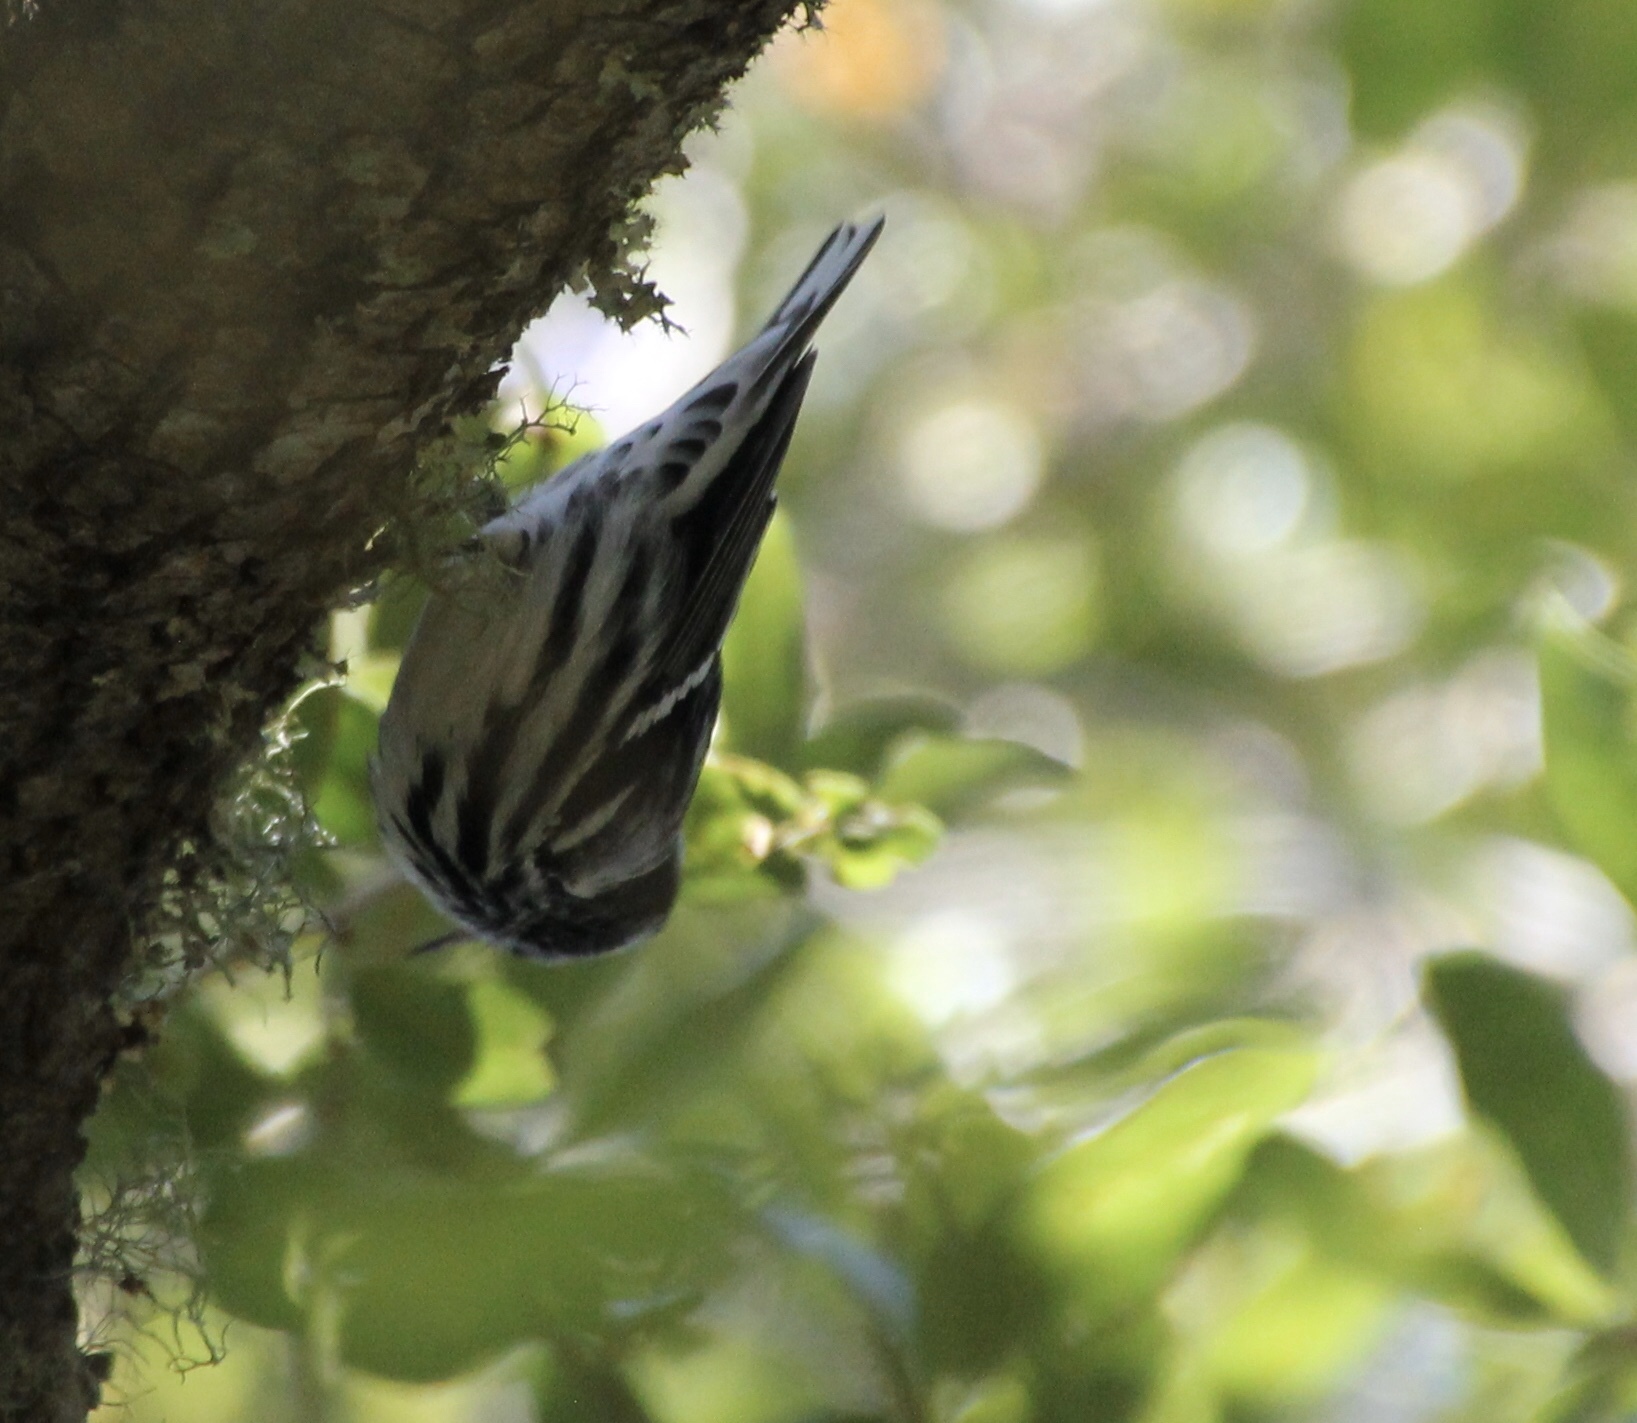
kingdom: Animalia
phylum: Chordata
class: Aves
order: Passeriformes
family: Parulidae
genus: Mniotilta
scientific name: Mniotilta varia
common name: Black-and-white warbler
